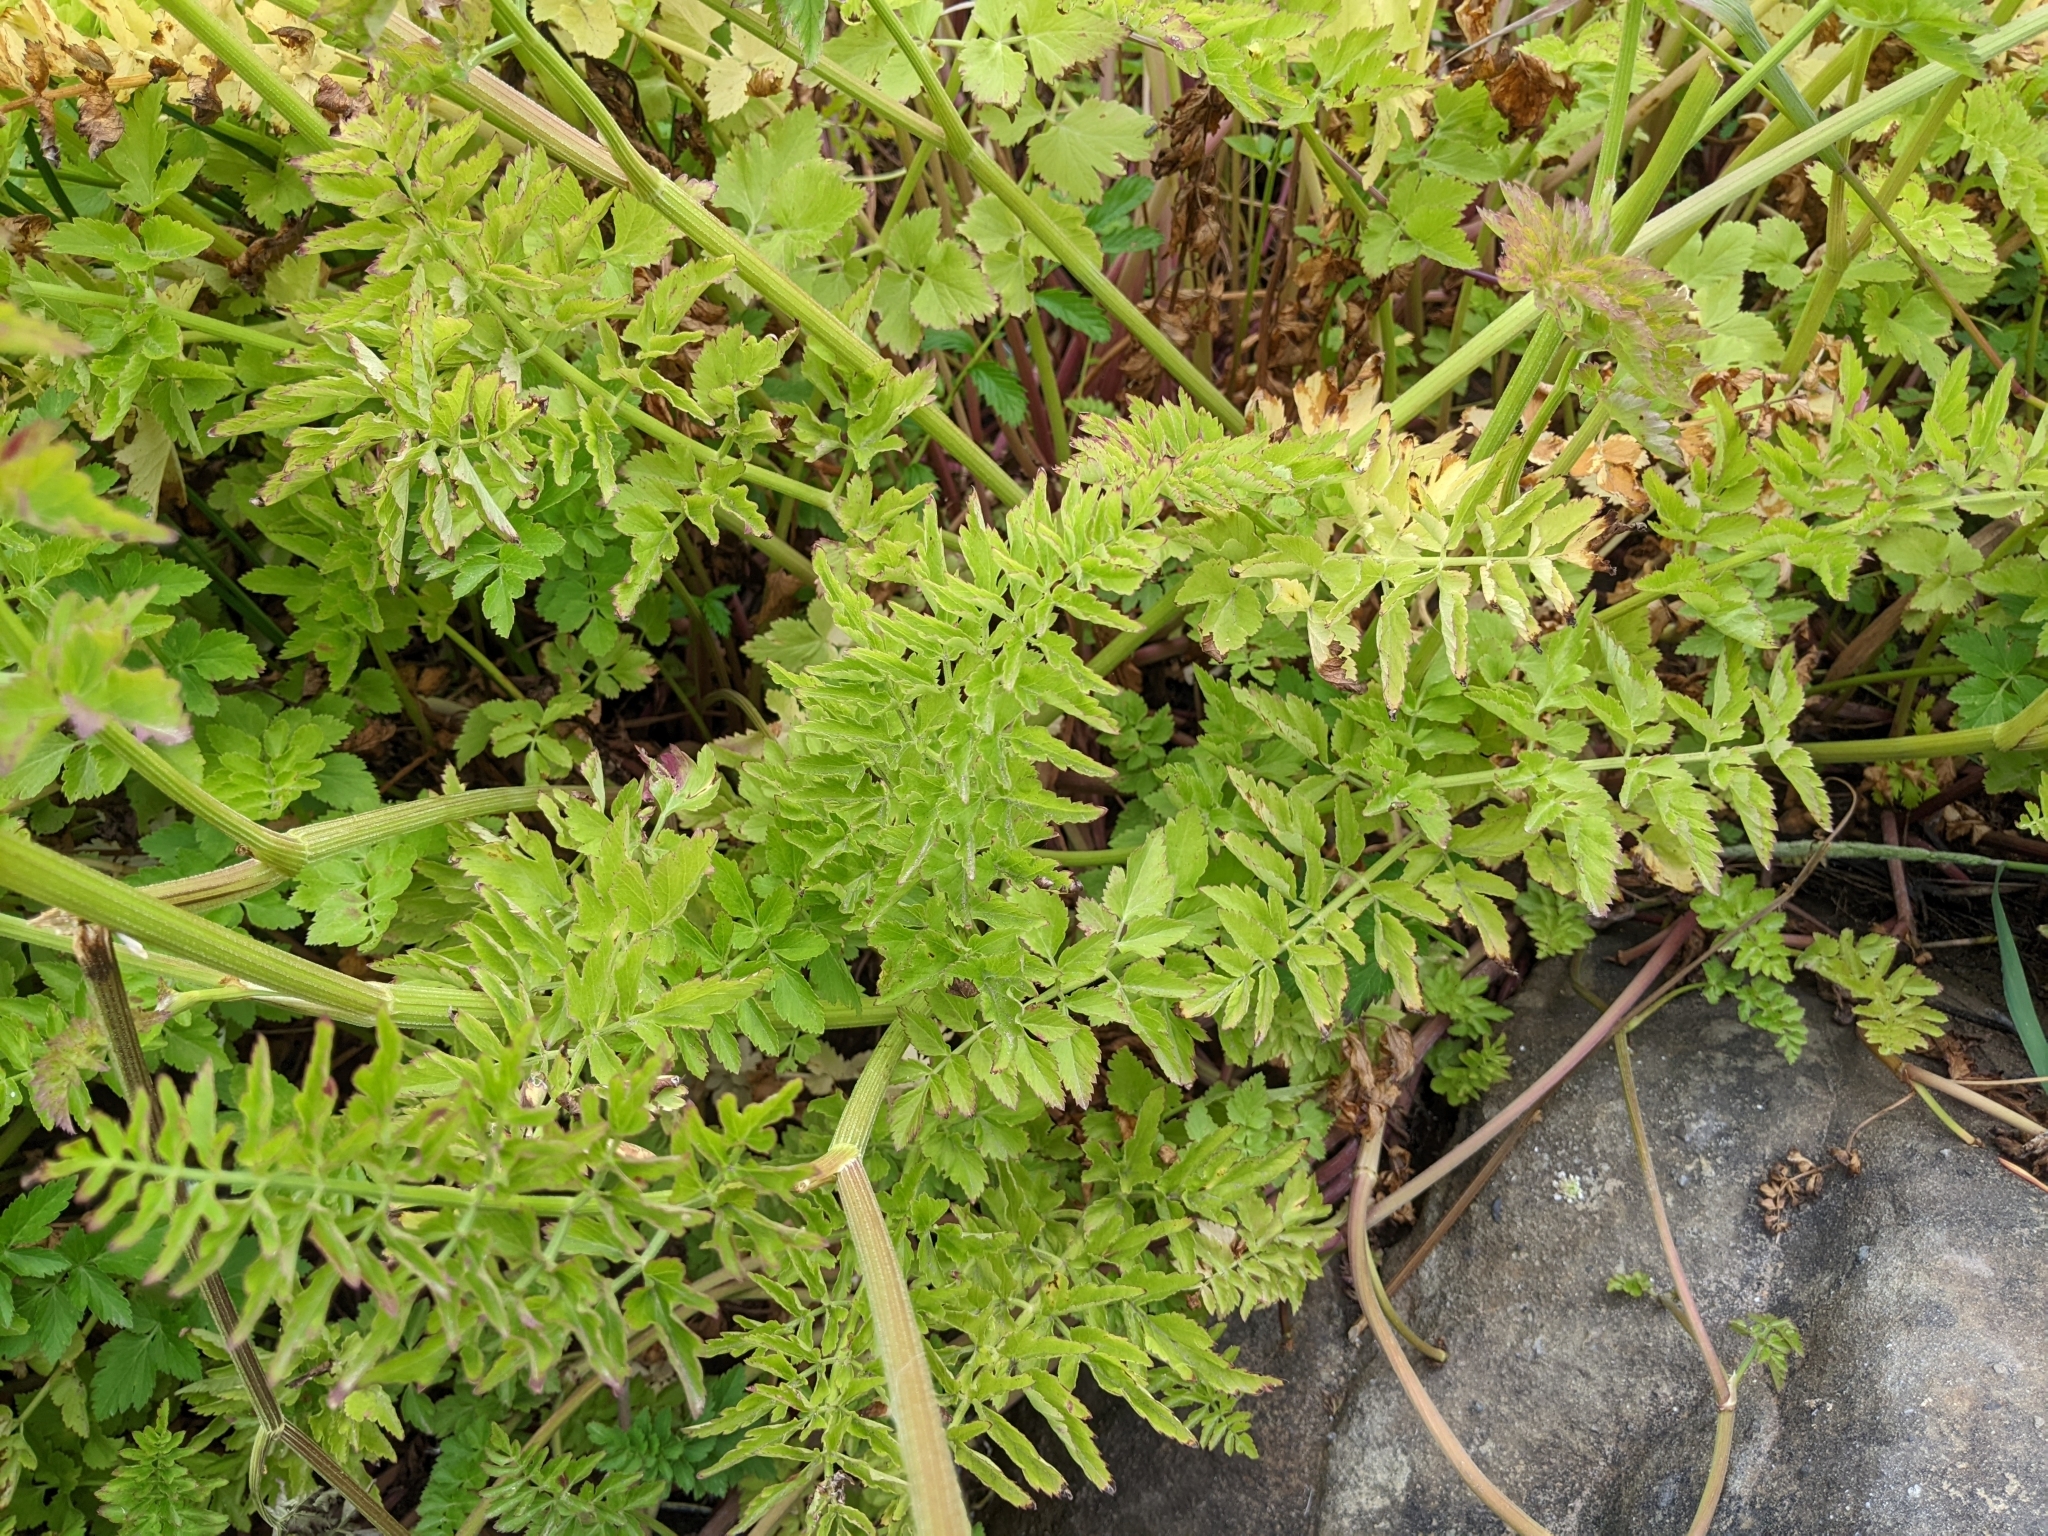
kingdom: Plantae
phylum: Tracheophyta
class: Magnoliopsida
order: Apiales
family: Apiaceae
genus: Oenanthe
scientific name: Oenanthe sarmentosa
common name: American water-parsley
